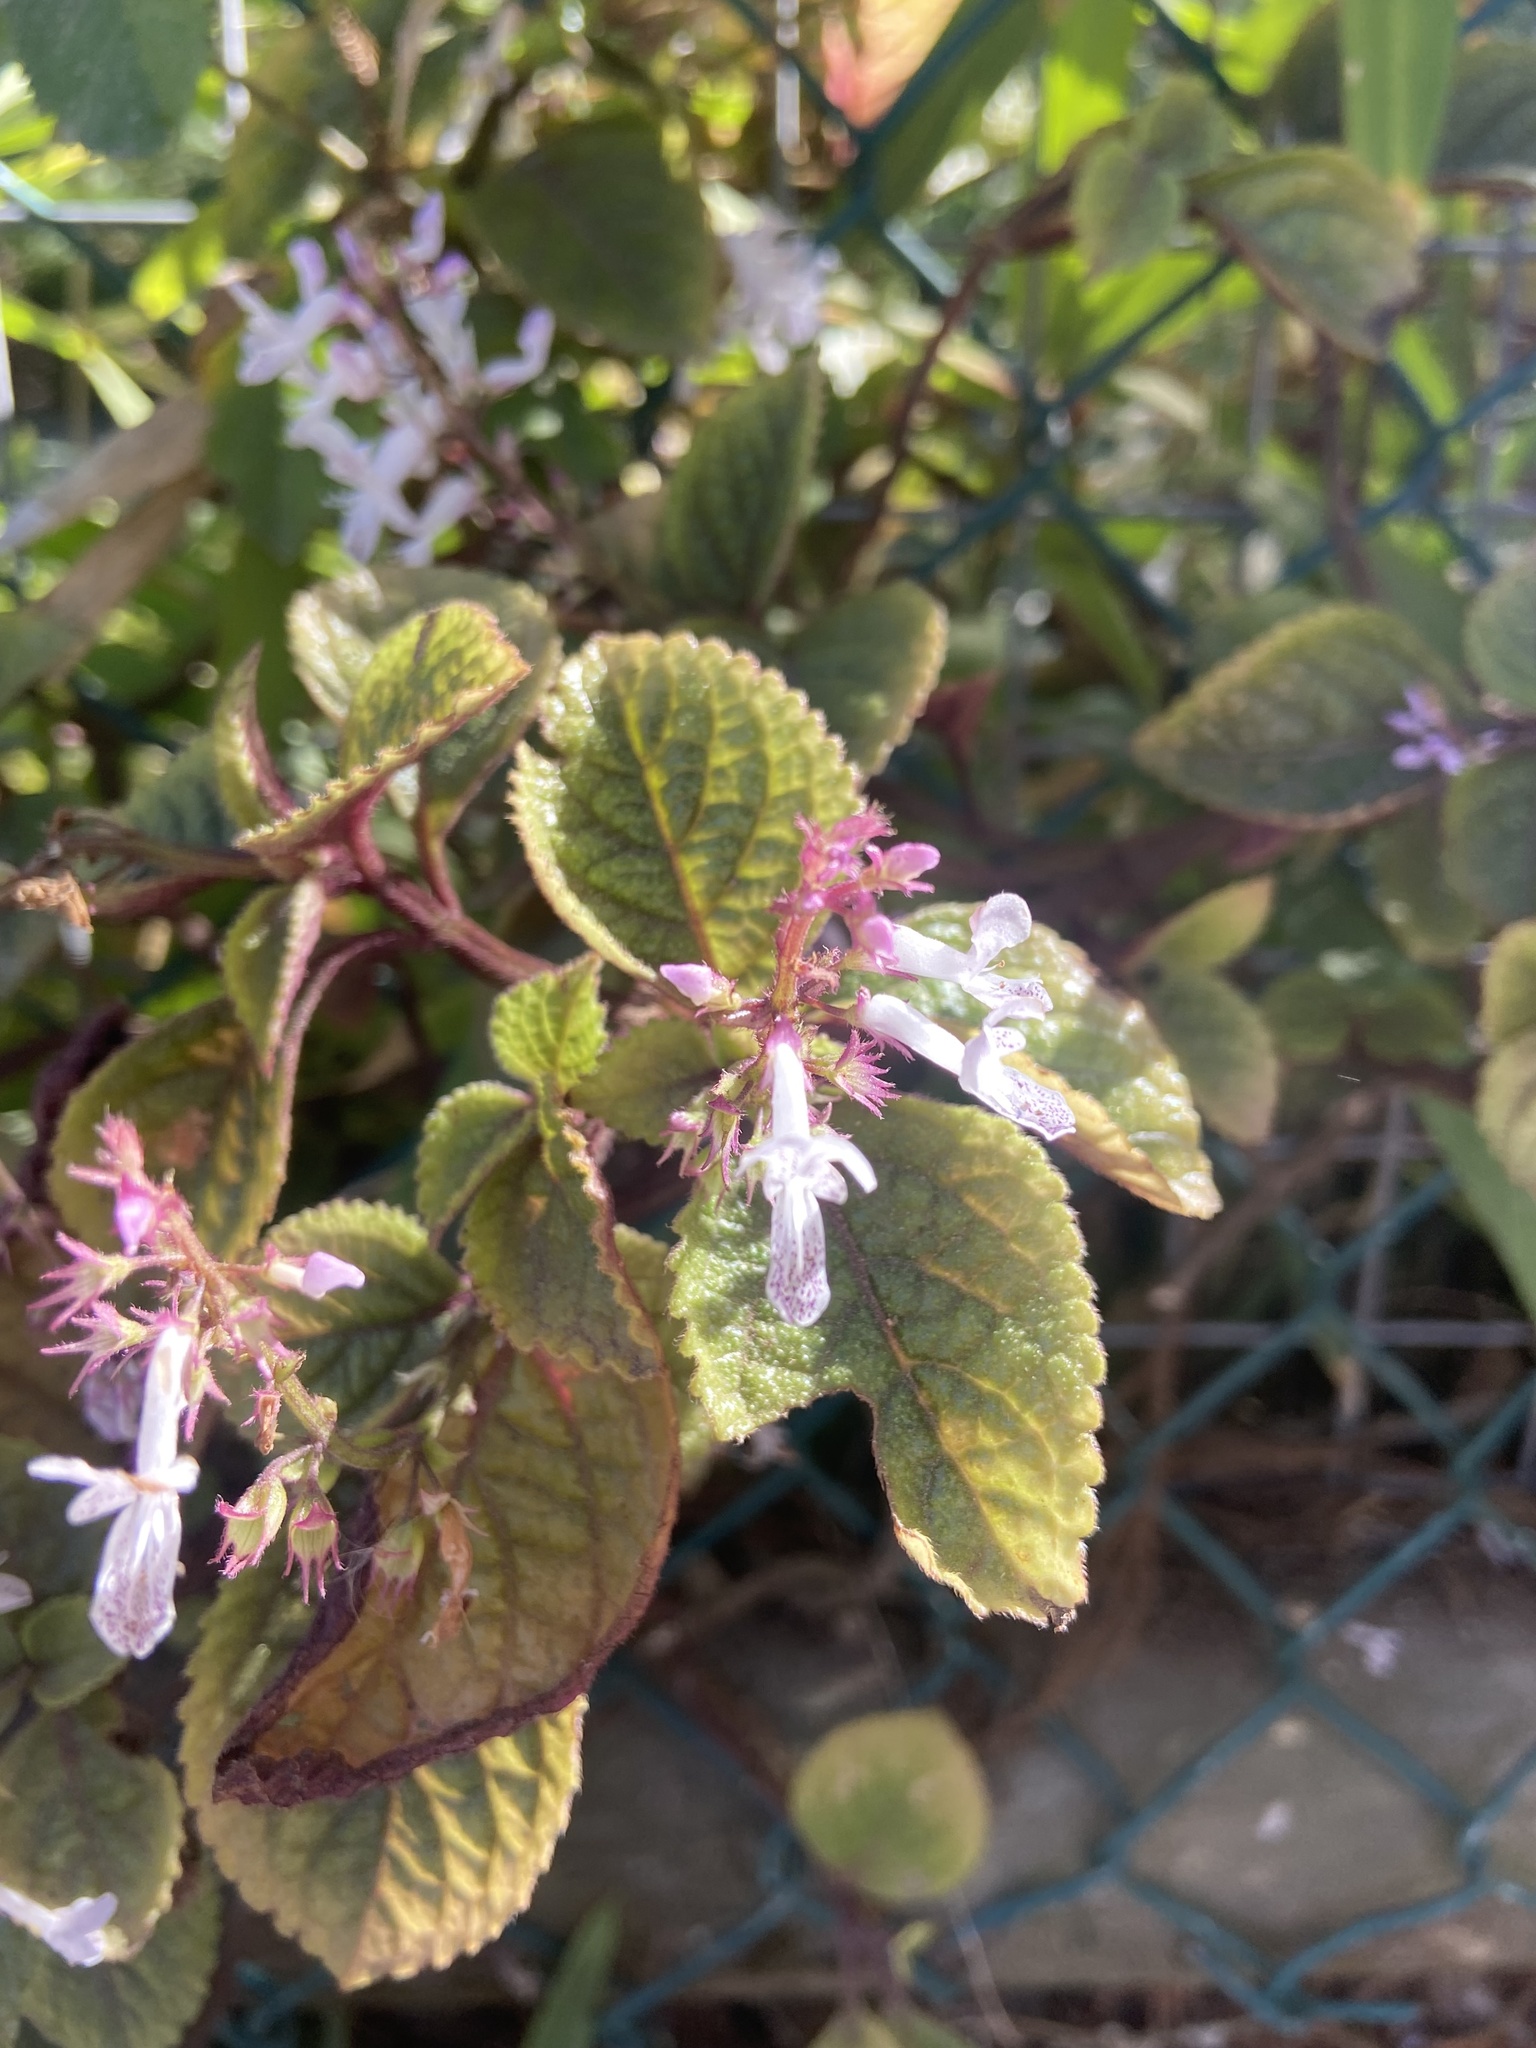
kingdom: Plantae
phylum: Tracheophyta
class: Magnoliopsida
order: Lamiales
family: Lamiaceae
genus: Plectranthus
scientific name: Plectranthus ciliatus
